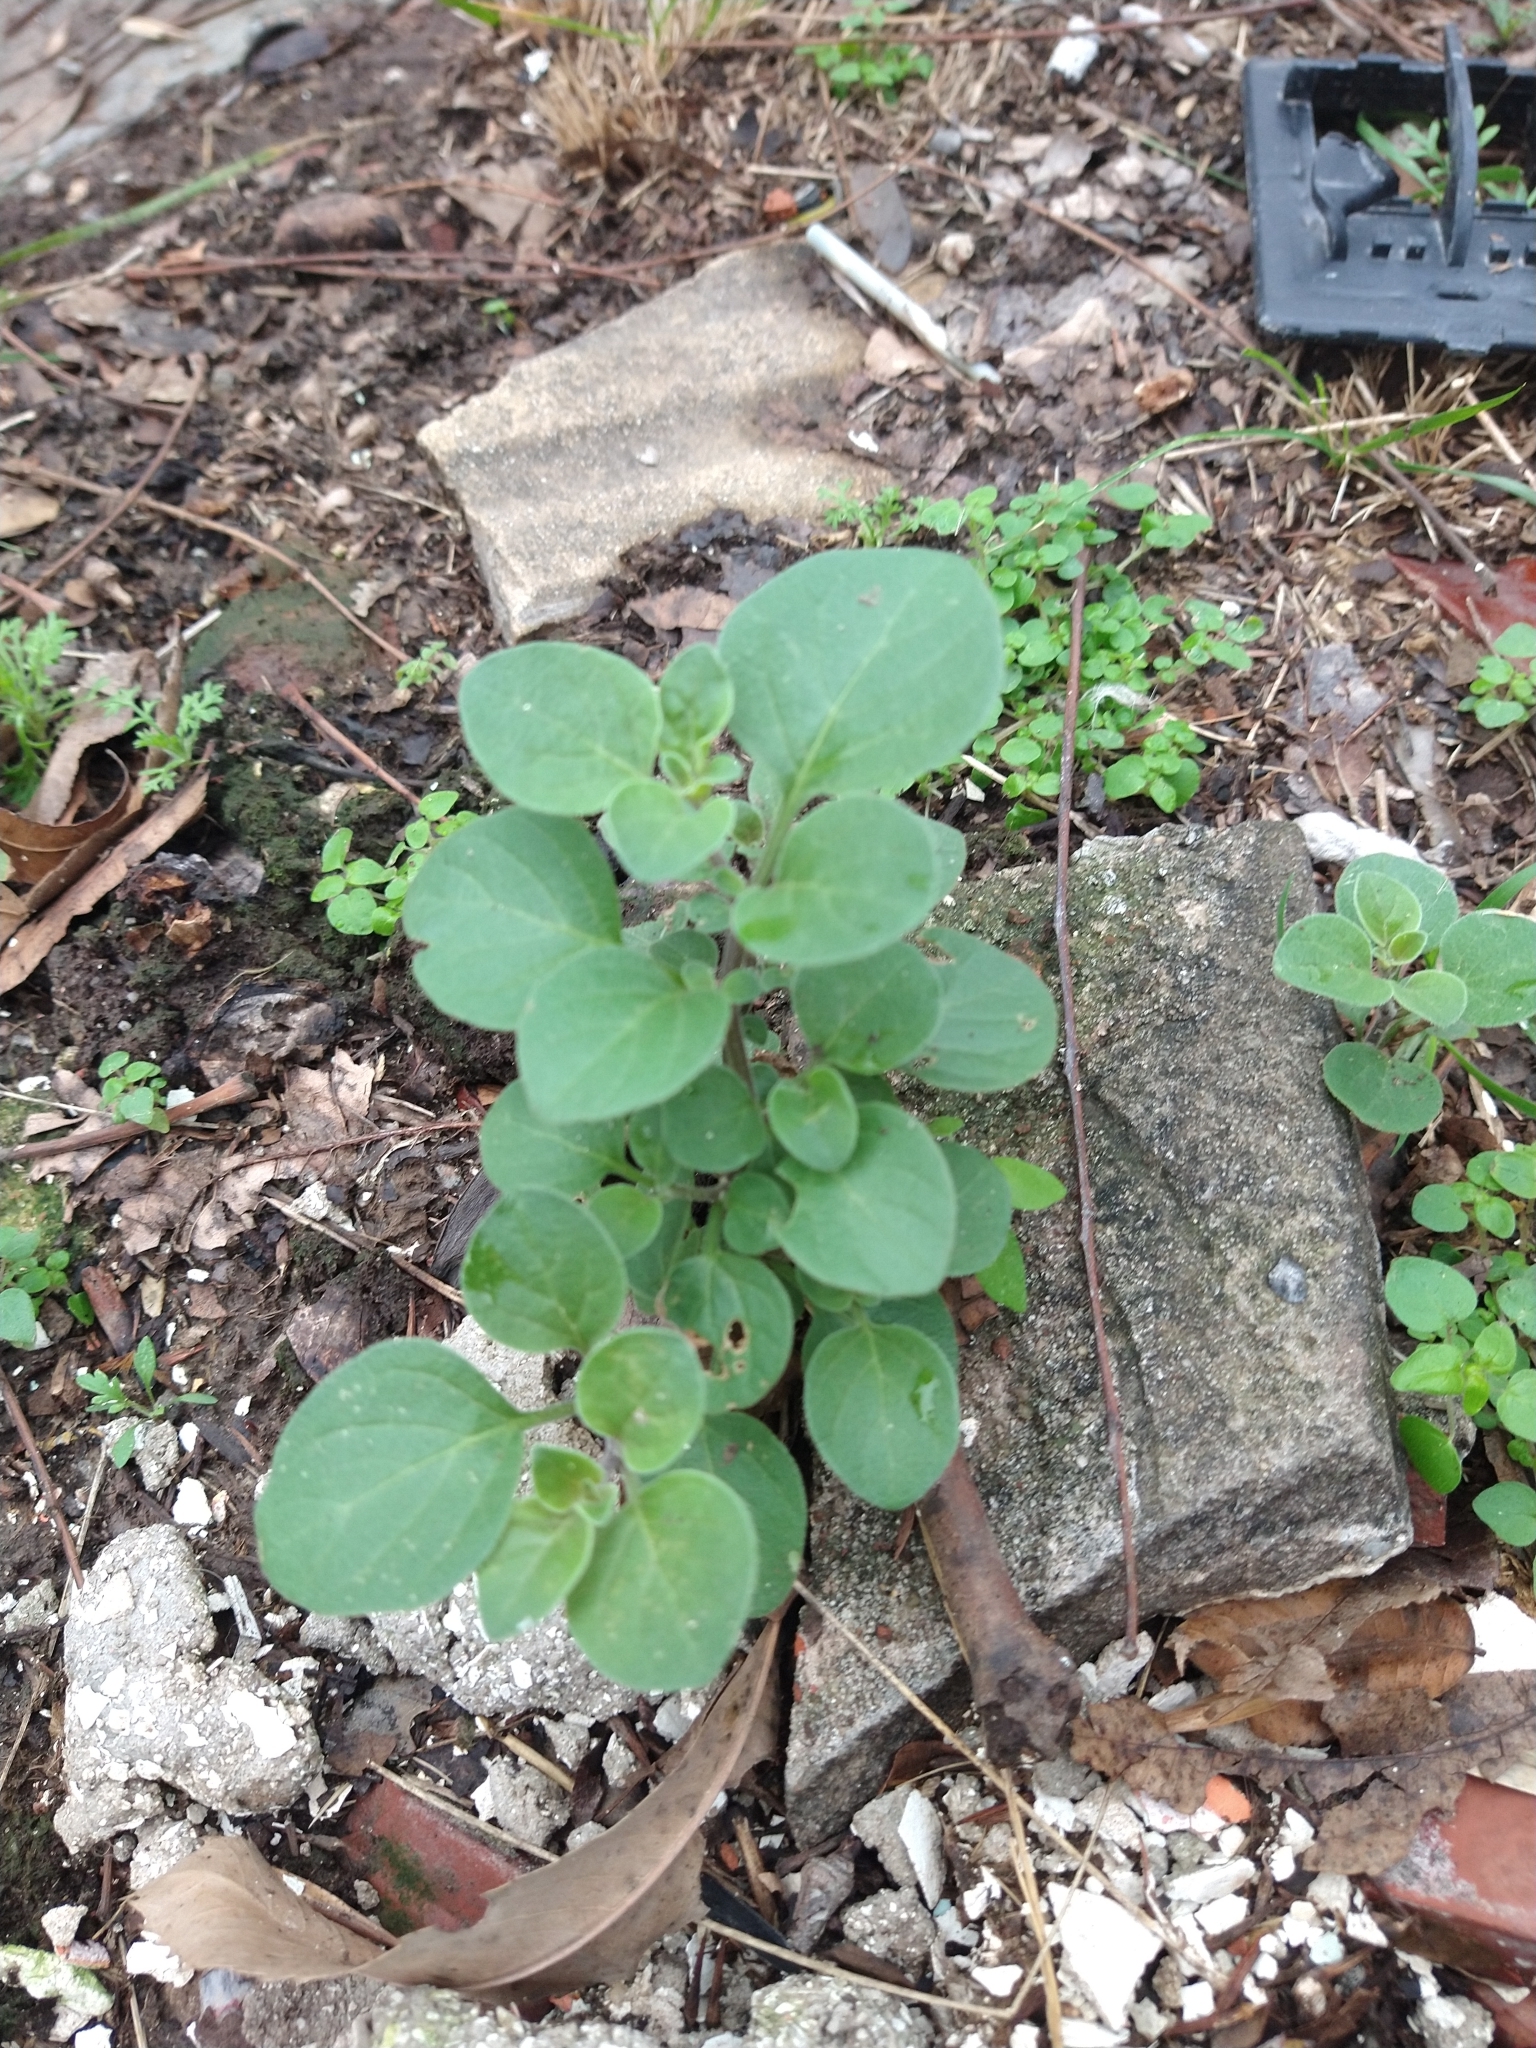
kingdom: Plantae
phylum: Tracheophyta
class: Magnoliopsida
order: Solanales
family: Solanaceae
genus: Salpichroa
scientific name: Salpichroa origanifolia
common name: Lily-of-the-valley-vine
